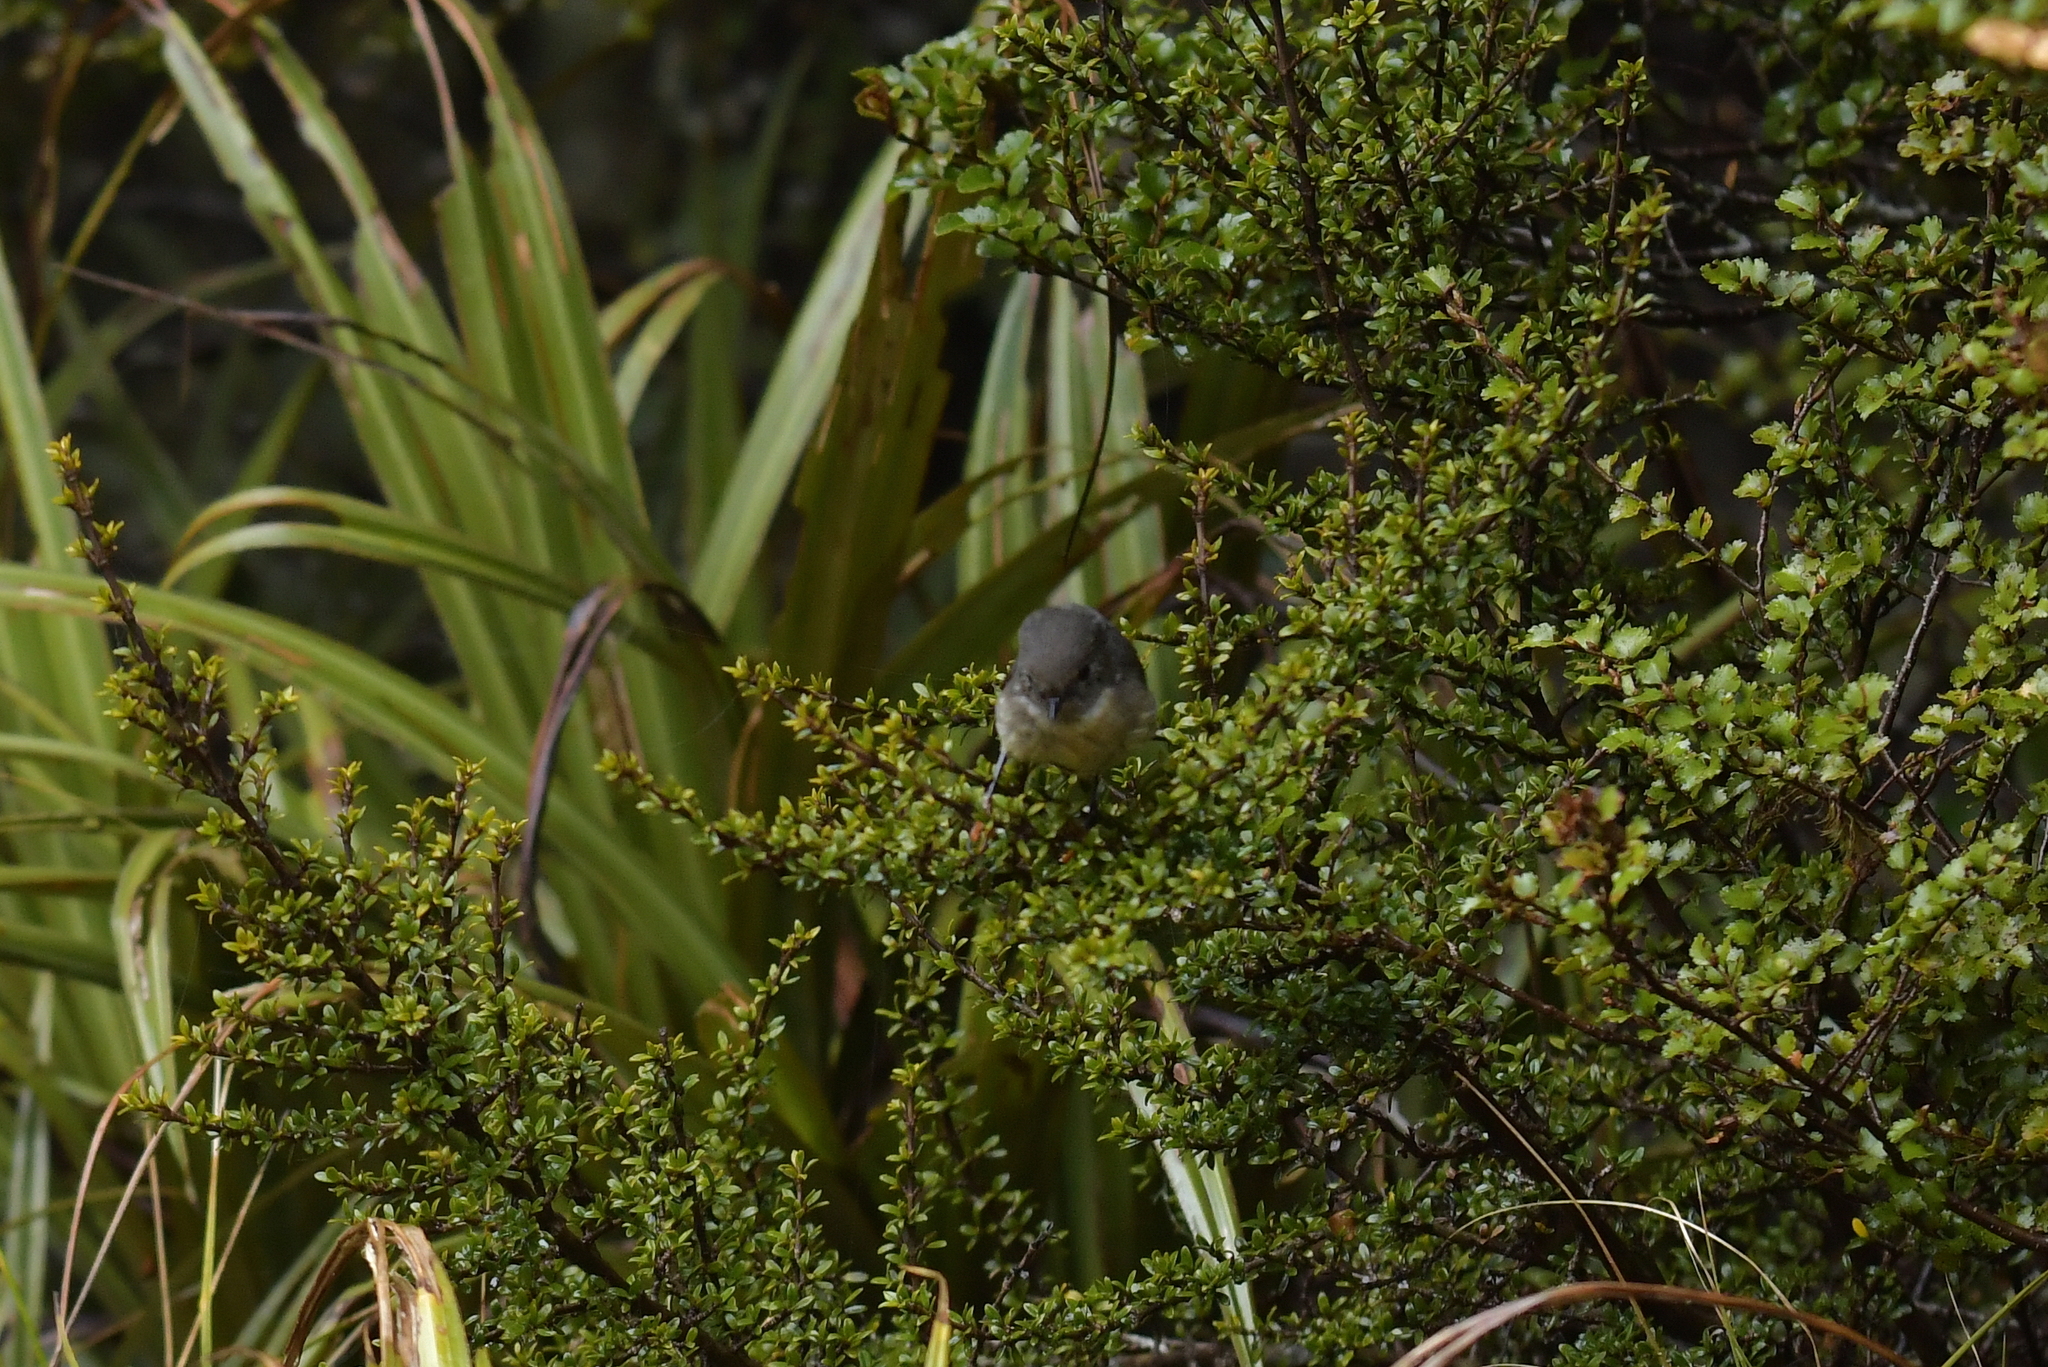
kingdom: Animalia
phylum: Chordata
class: Aves
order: Passeriformes
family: Petroicidae
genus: Petroica
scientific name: Petroica macrocephala
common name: Tomtit
